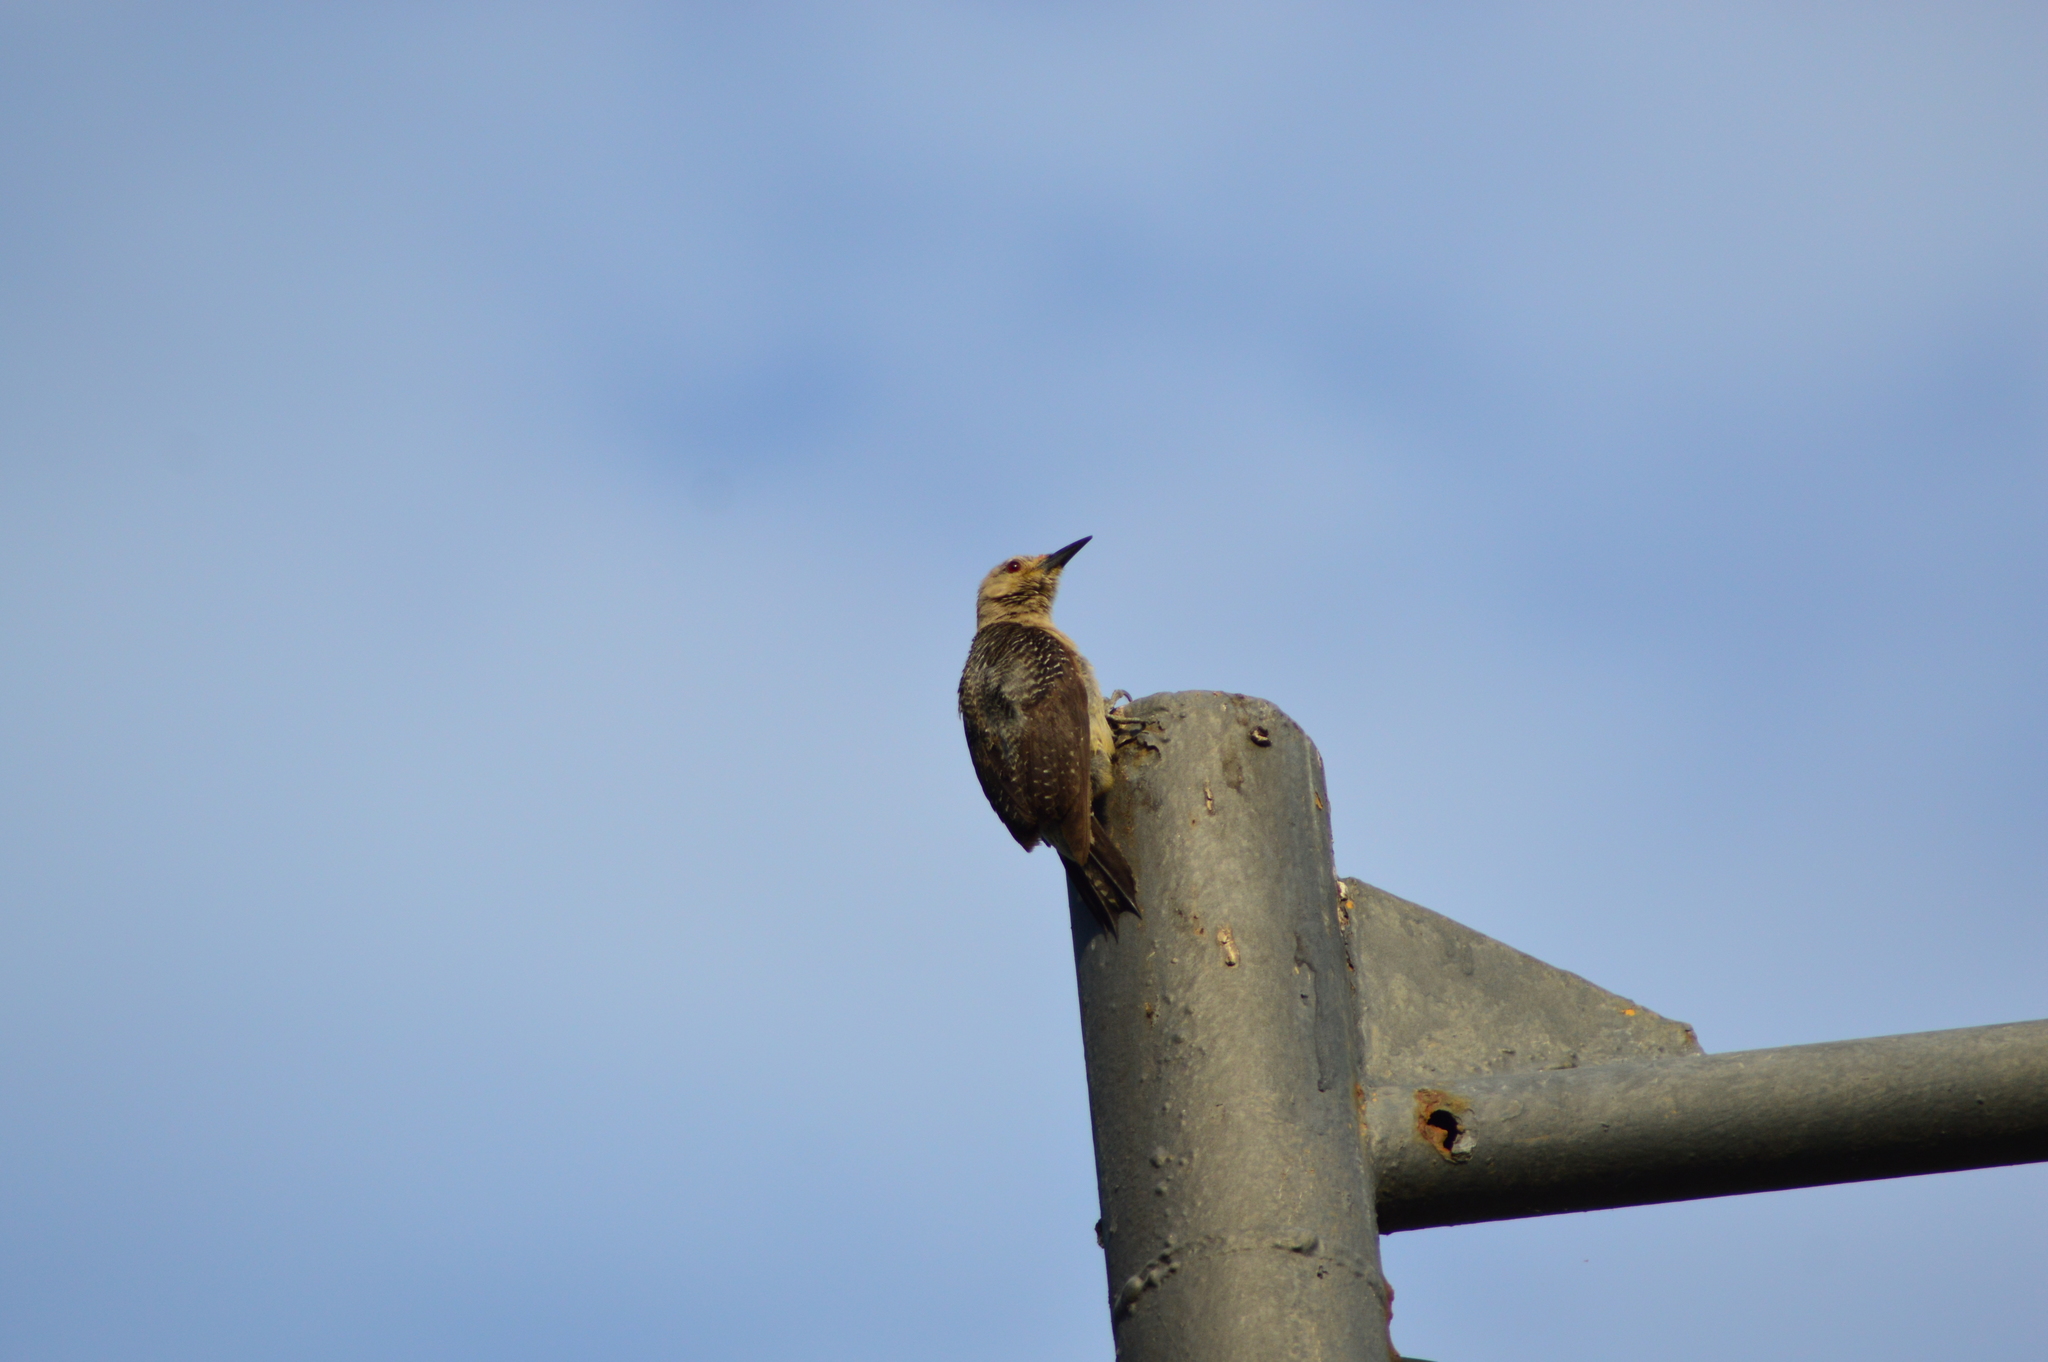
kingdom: Animalia
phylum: Chordata
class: Aves
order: Piciformes
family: Picidae
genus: Melanerpes
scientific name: Melanerpes aurifrons
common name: Golden-fronted woodpecker
